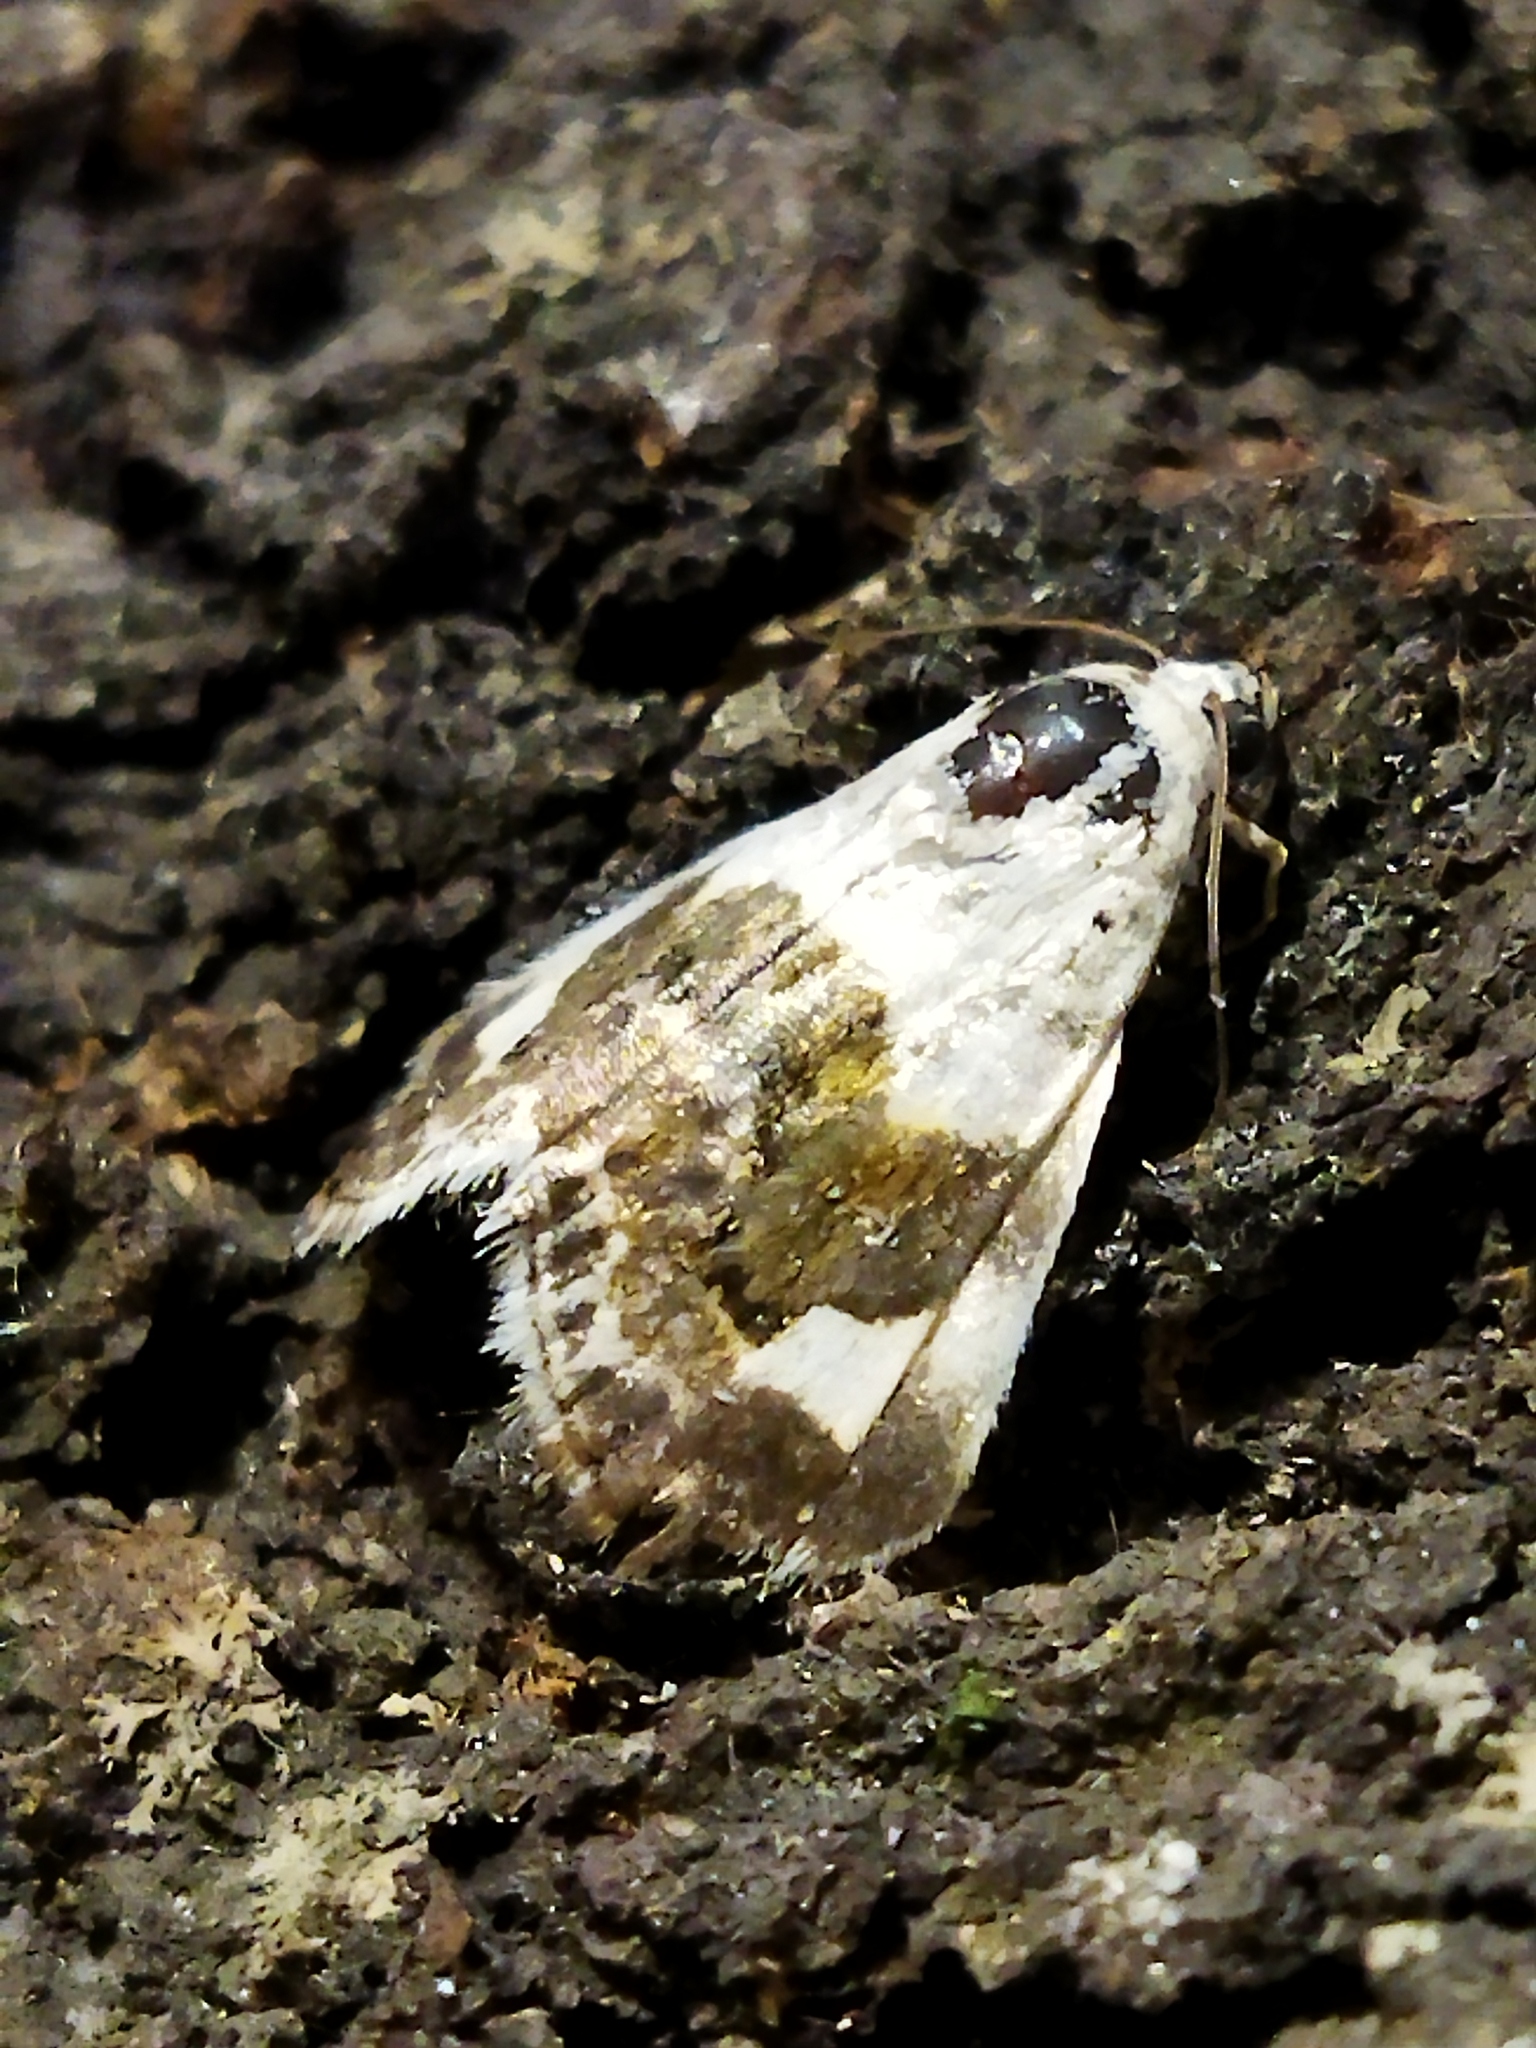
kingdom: Animalia
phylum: Arthropoda
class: Insecta
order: Lepidoptera
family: Noctuidae
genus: Acontia
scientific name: Acontia lucida
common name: Pale shoulder
